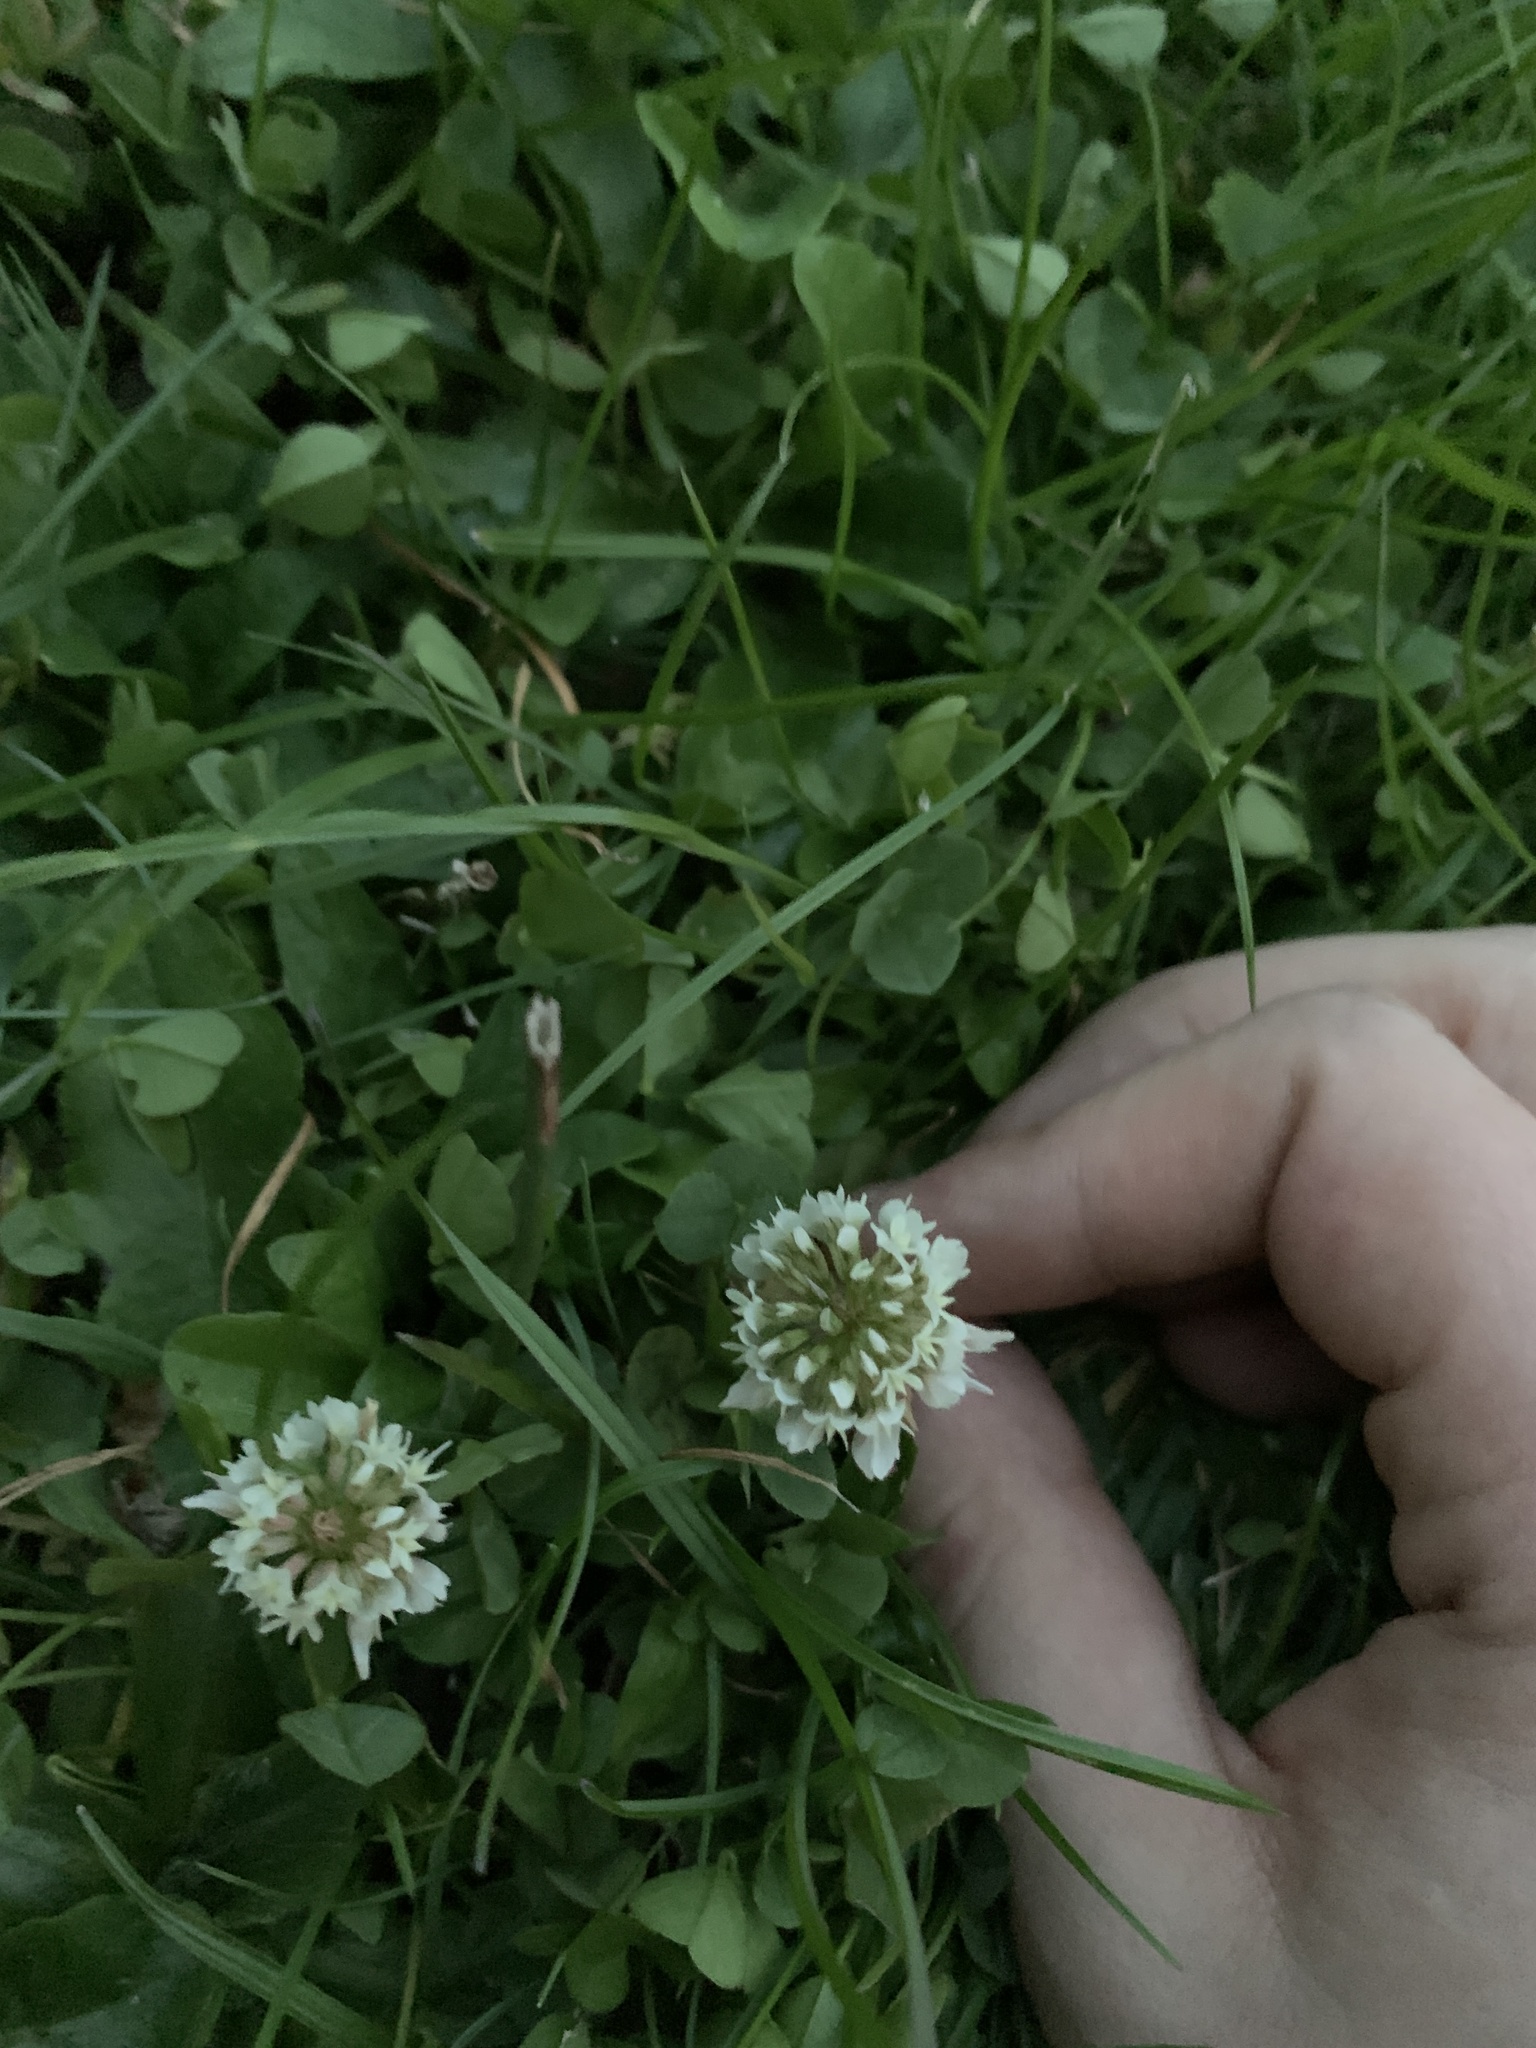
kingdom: Plantae
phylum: Tracheophyta
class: Magnoliopsida
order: Fabales
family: Fabaceae
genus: Trifolium
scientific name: Trifolium repens
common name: White clover
